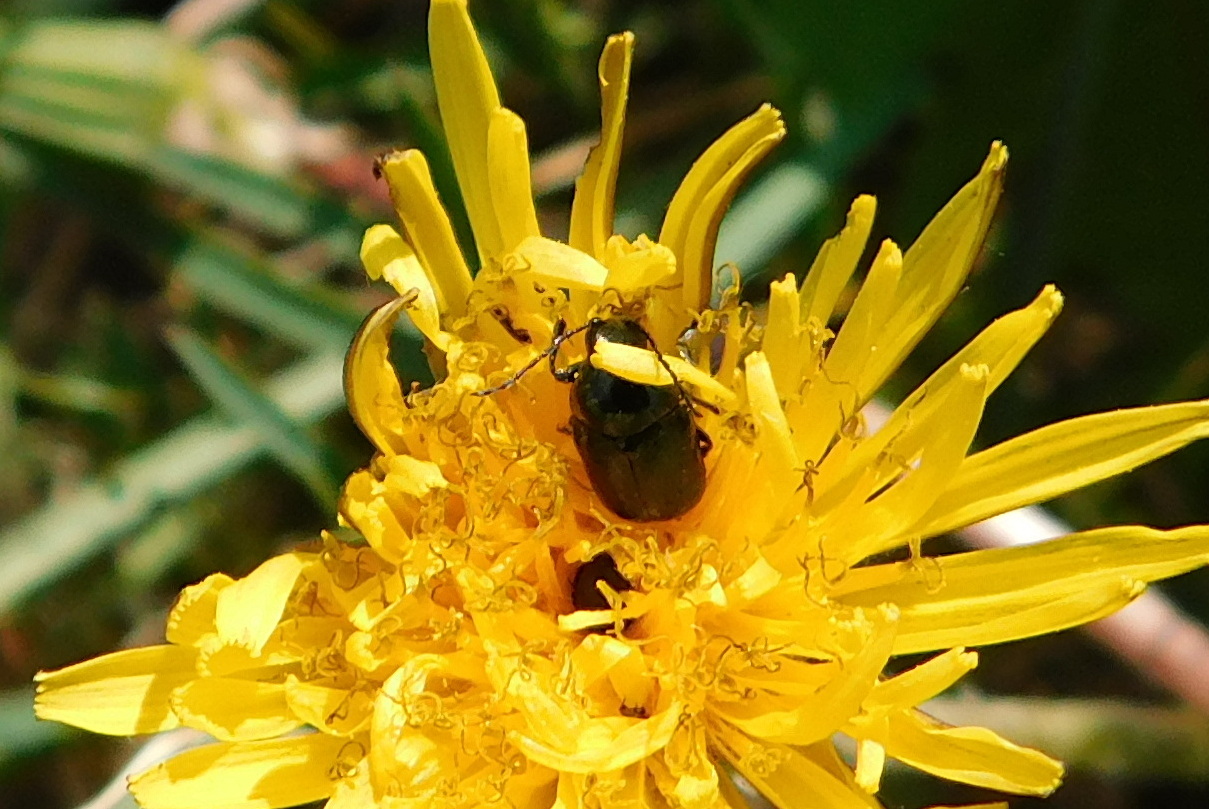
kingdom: Animalia
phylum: Arthropoda
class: Insecta
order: Coleoptera
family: Chrysomelidae
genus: Cryptocephalus
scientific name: Cryptocephalus violaceus
